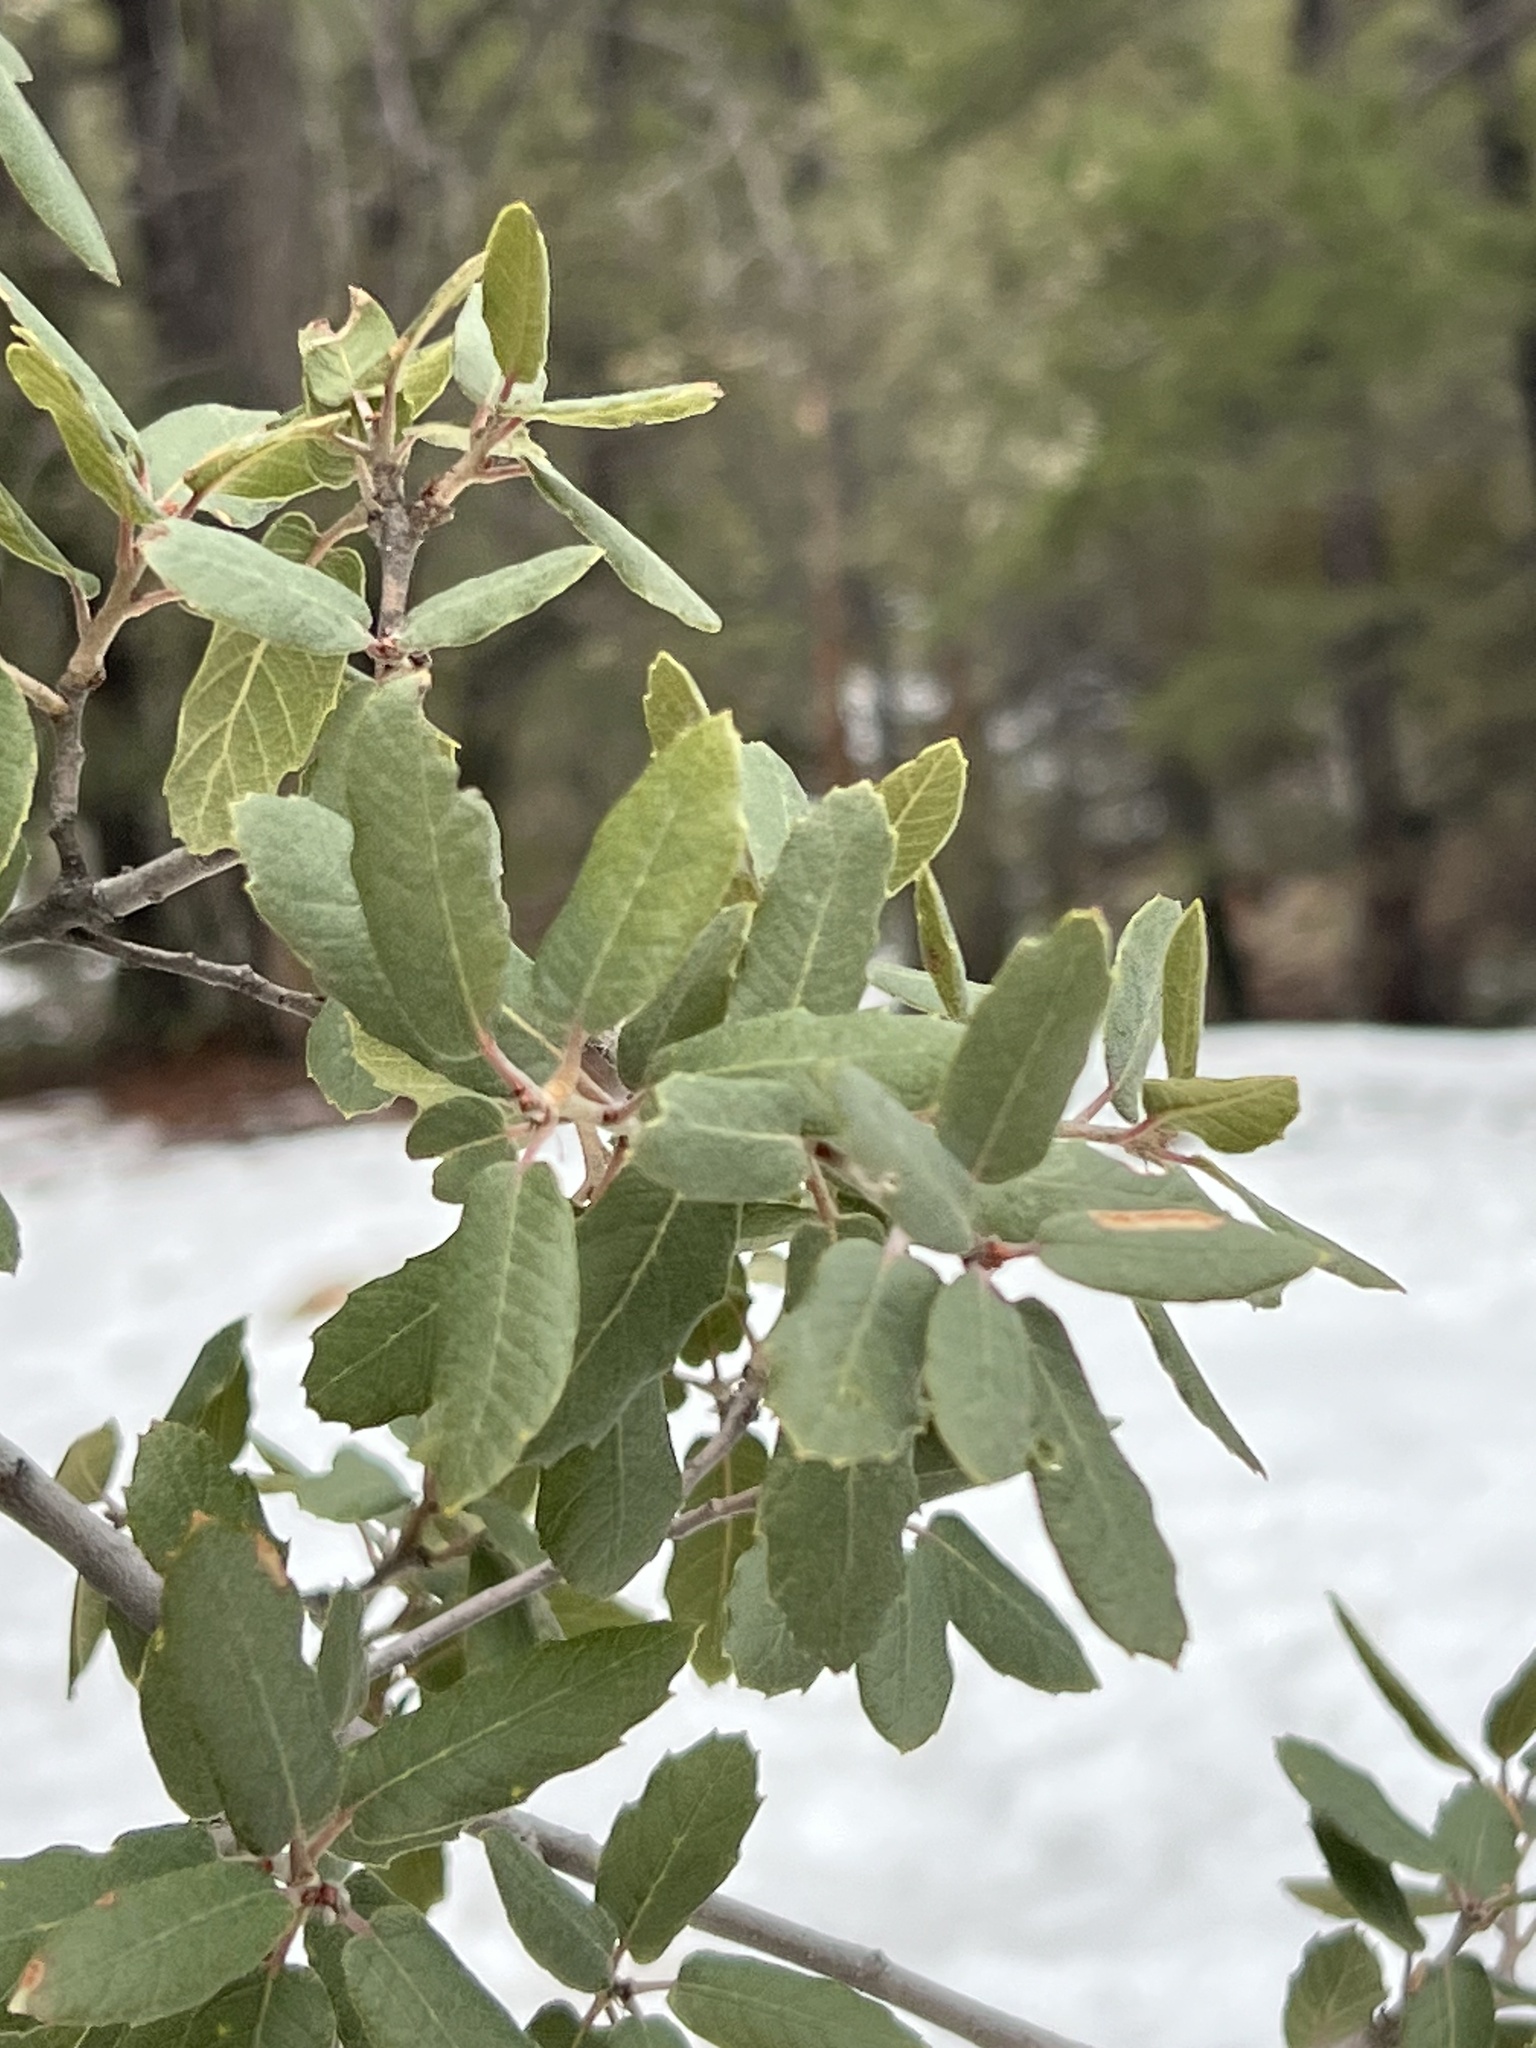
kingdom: Plantae
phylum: Tracheophyta
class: Magnoliopsida
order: Fagales
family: Fagaceae
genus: Quercus
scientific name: Quercus arizonica
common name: Arizona white oak
